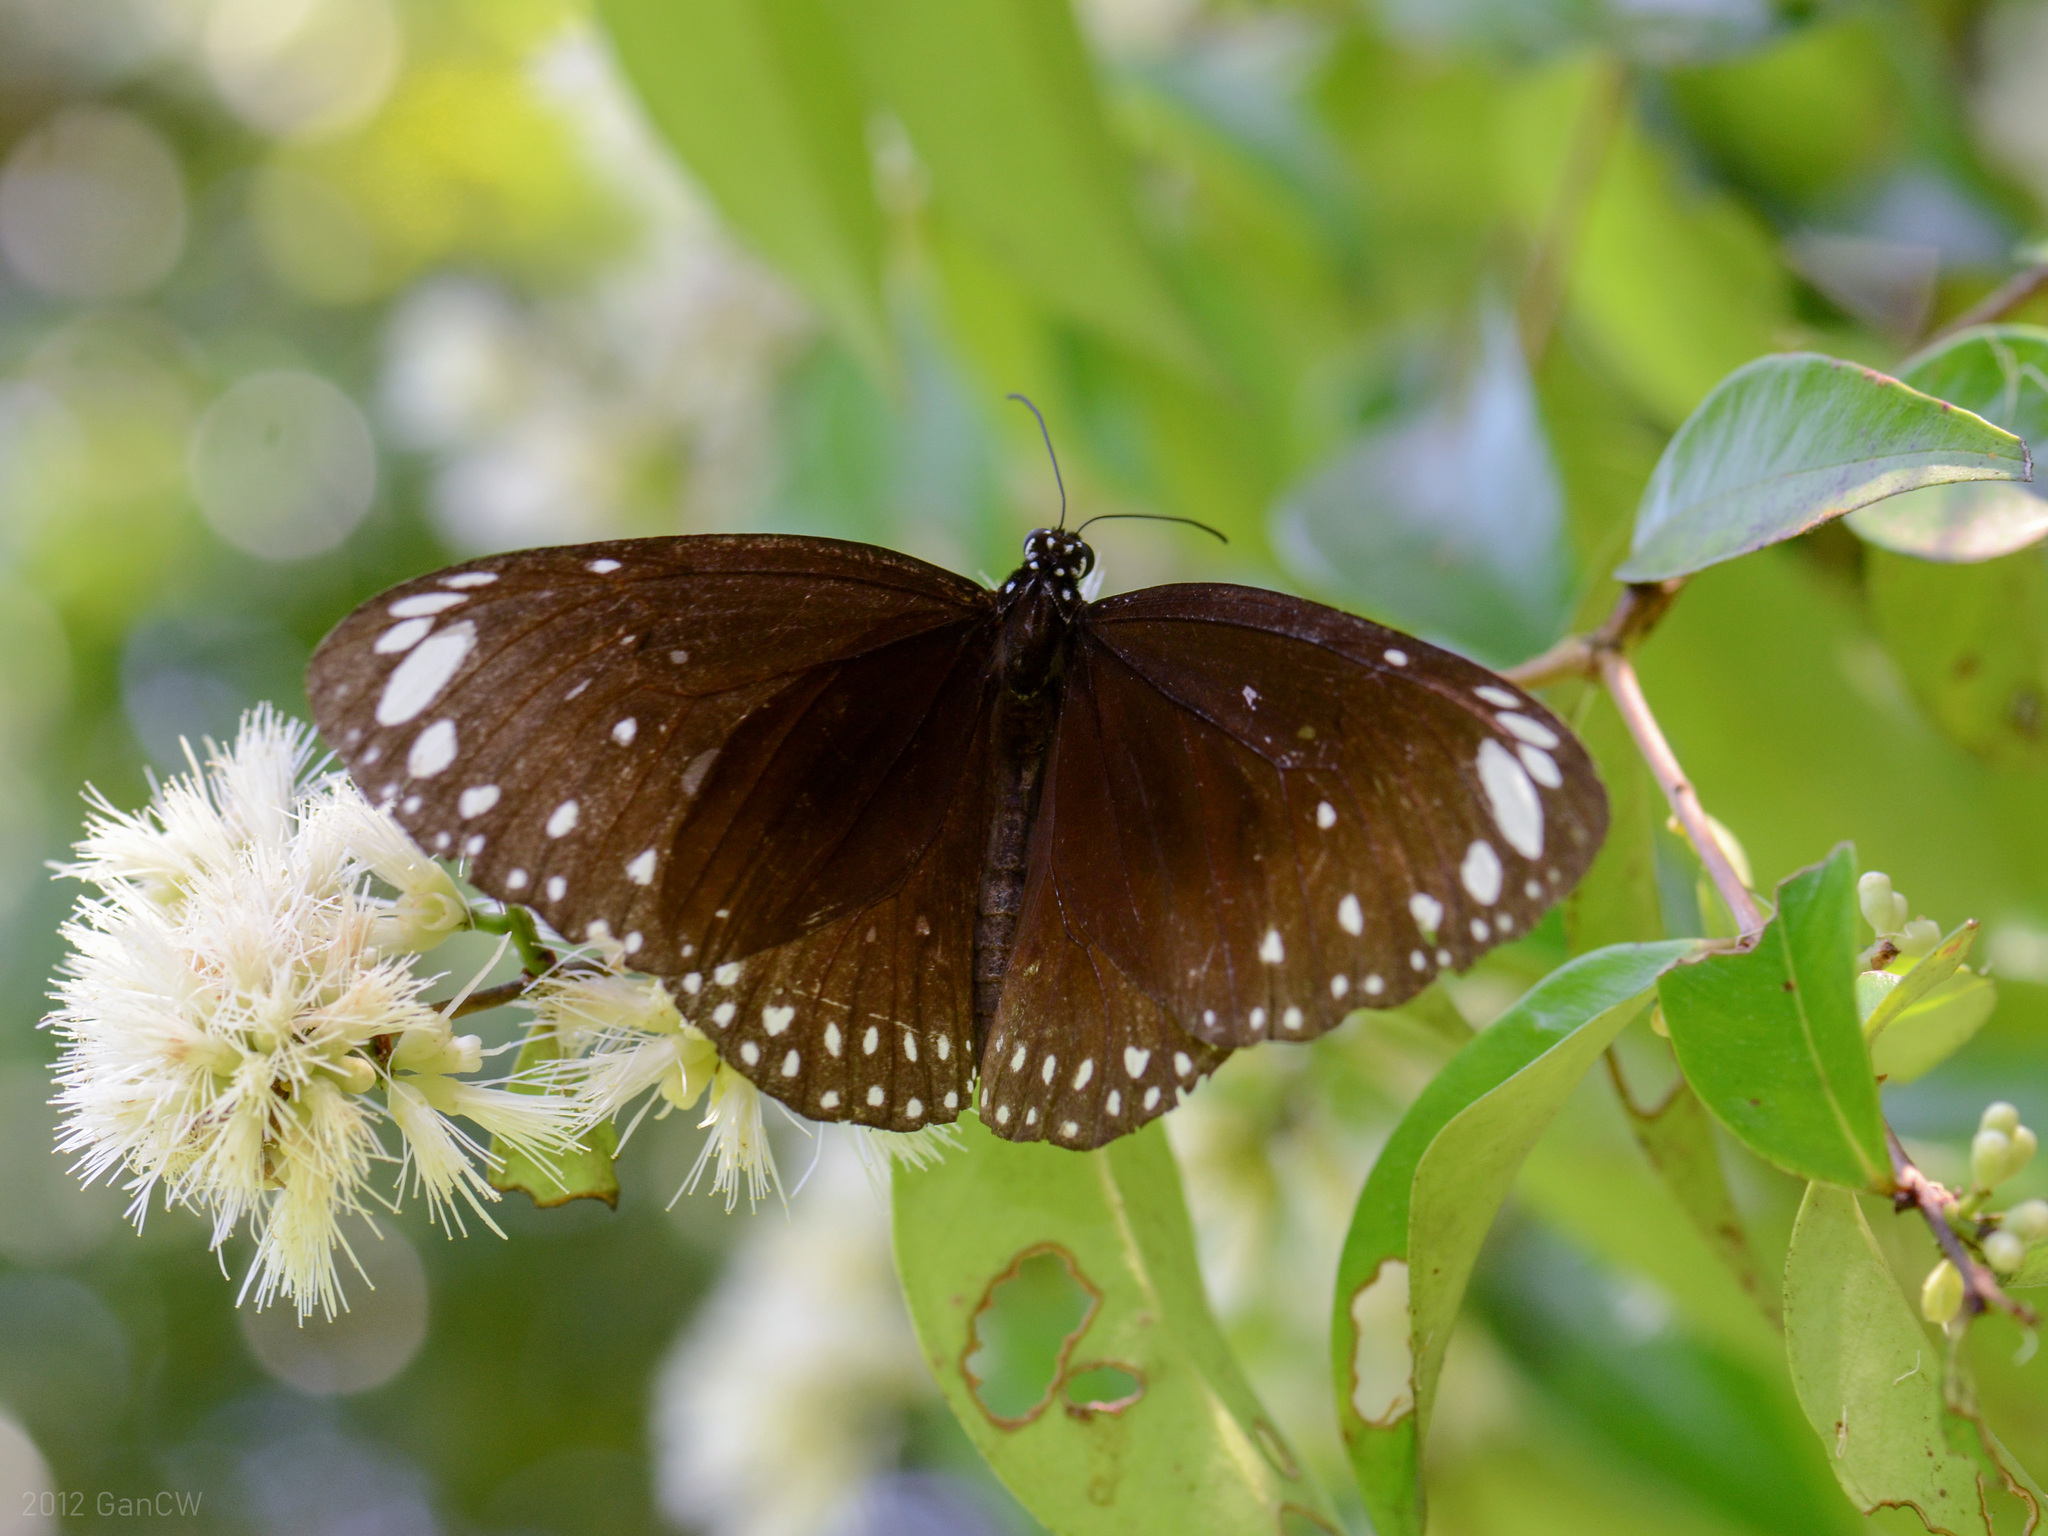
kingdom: Animalia
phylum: Arthropoda
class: Insecta
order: Lepidoptera
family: Nymphalidae
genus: Euploea
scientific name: Euploea crameri
